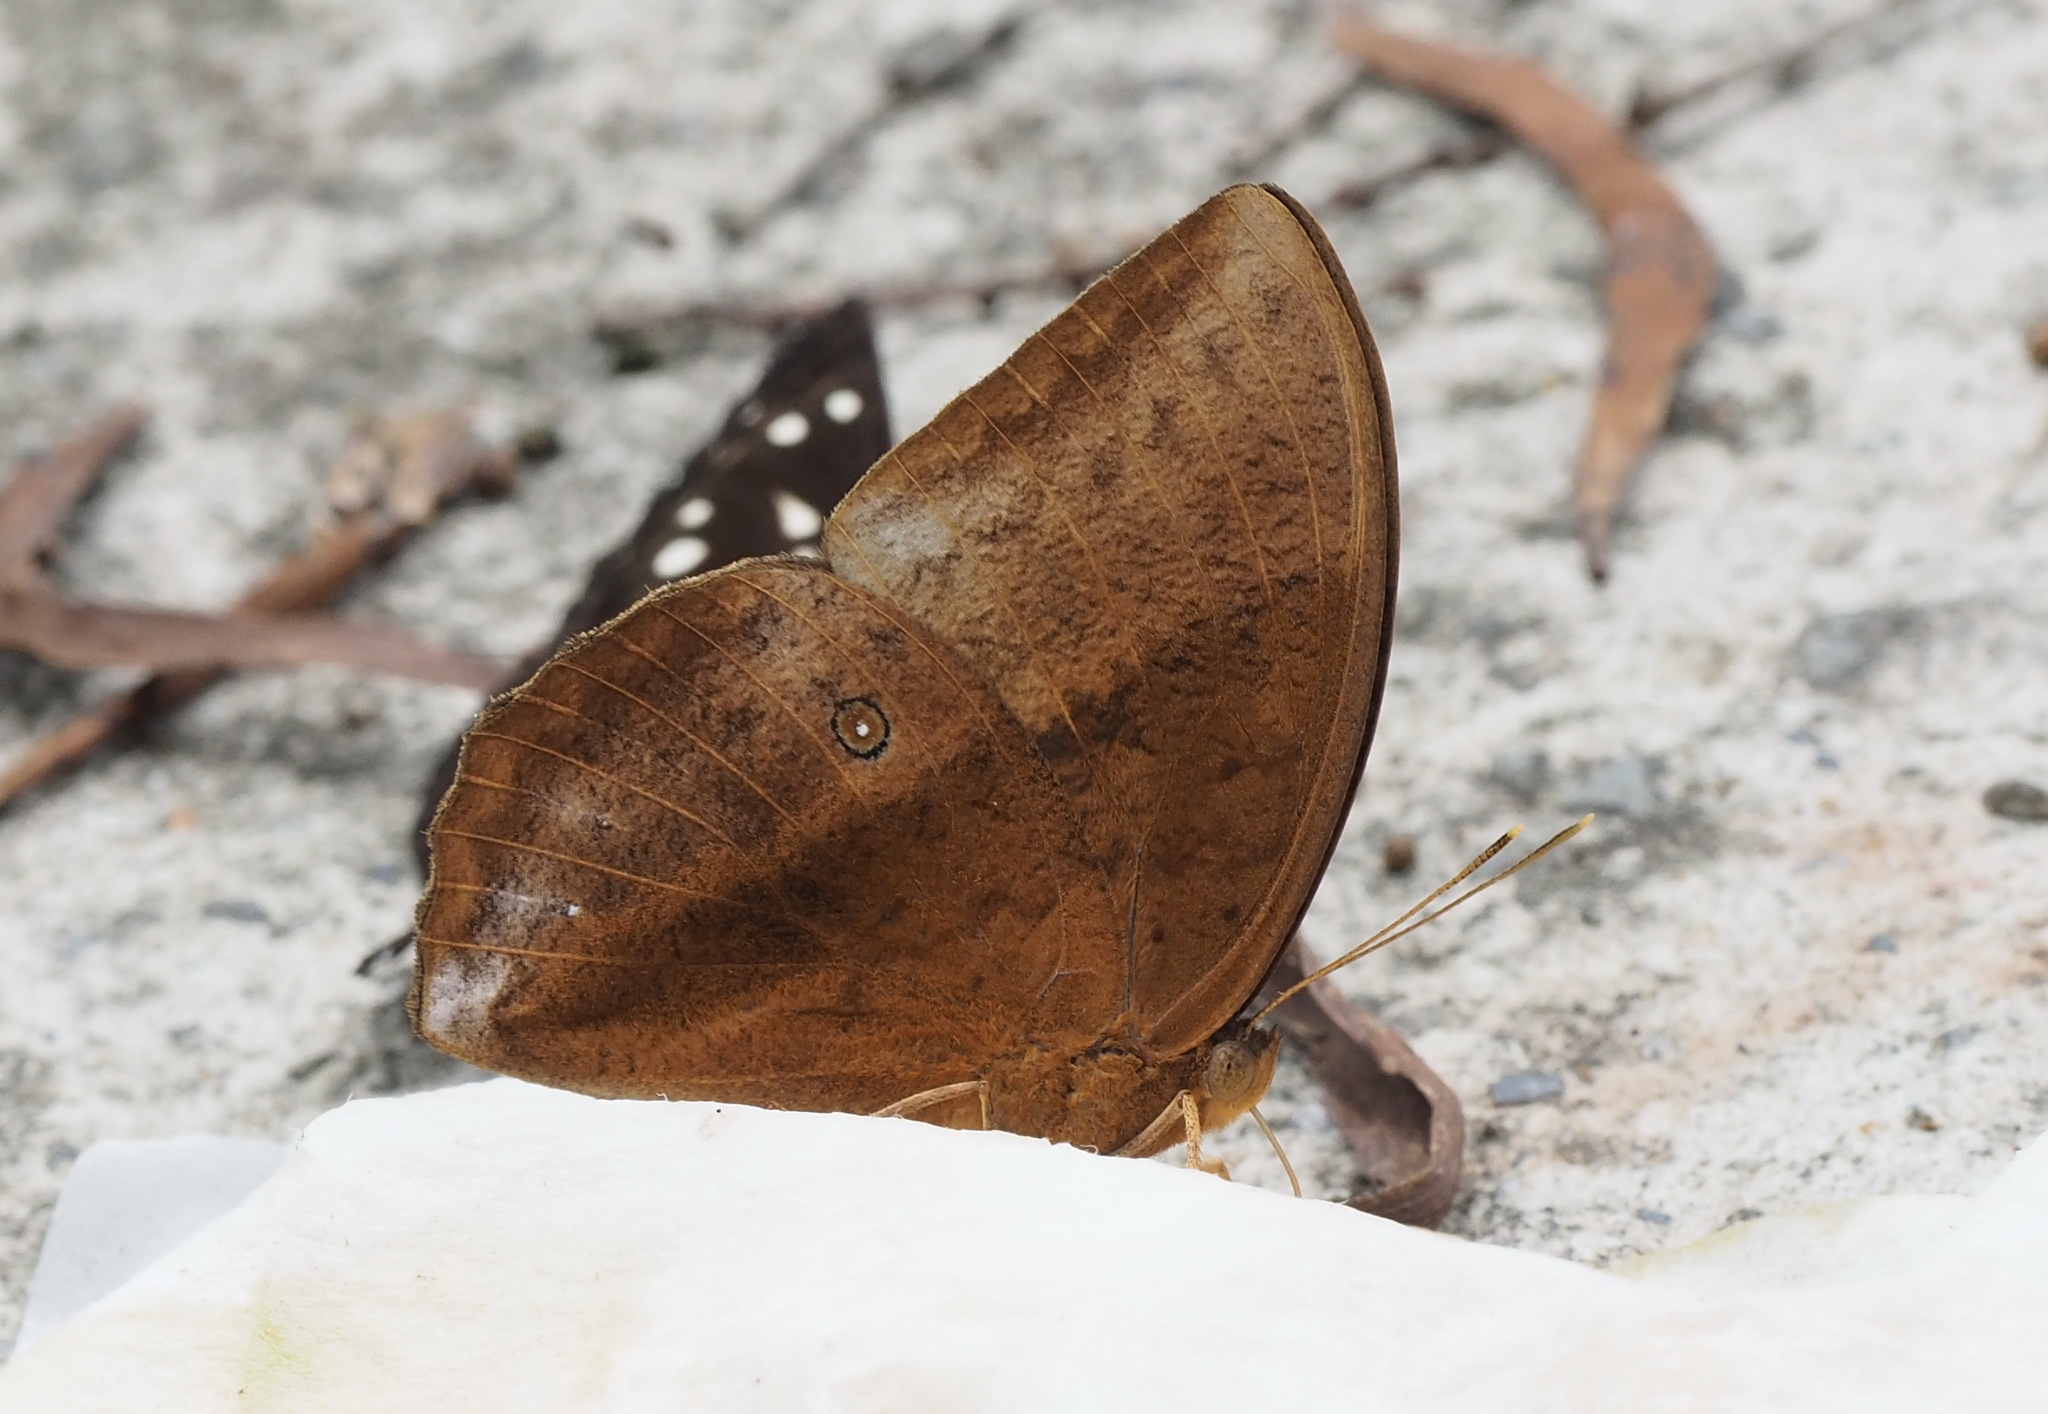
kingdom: Animalia
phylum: Arthropoda
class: Insecta
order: Lepidoptera
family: Nymphalidae
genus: Discophora
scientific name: Discophora sondaica
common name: Common duffer
